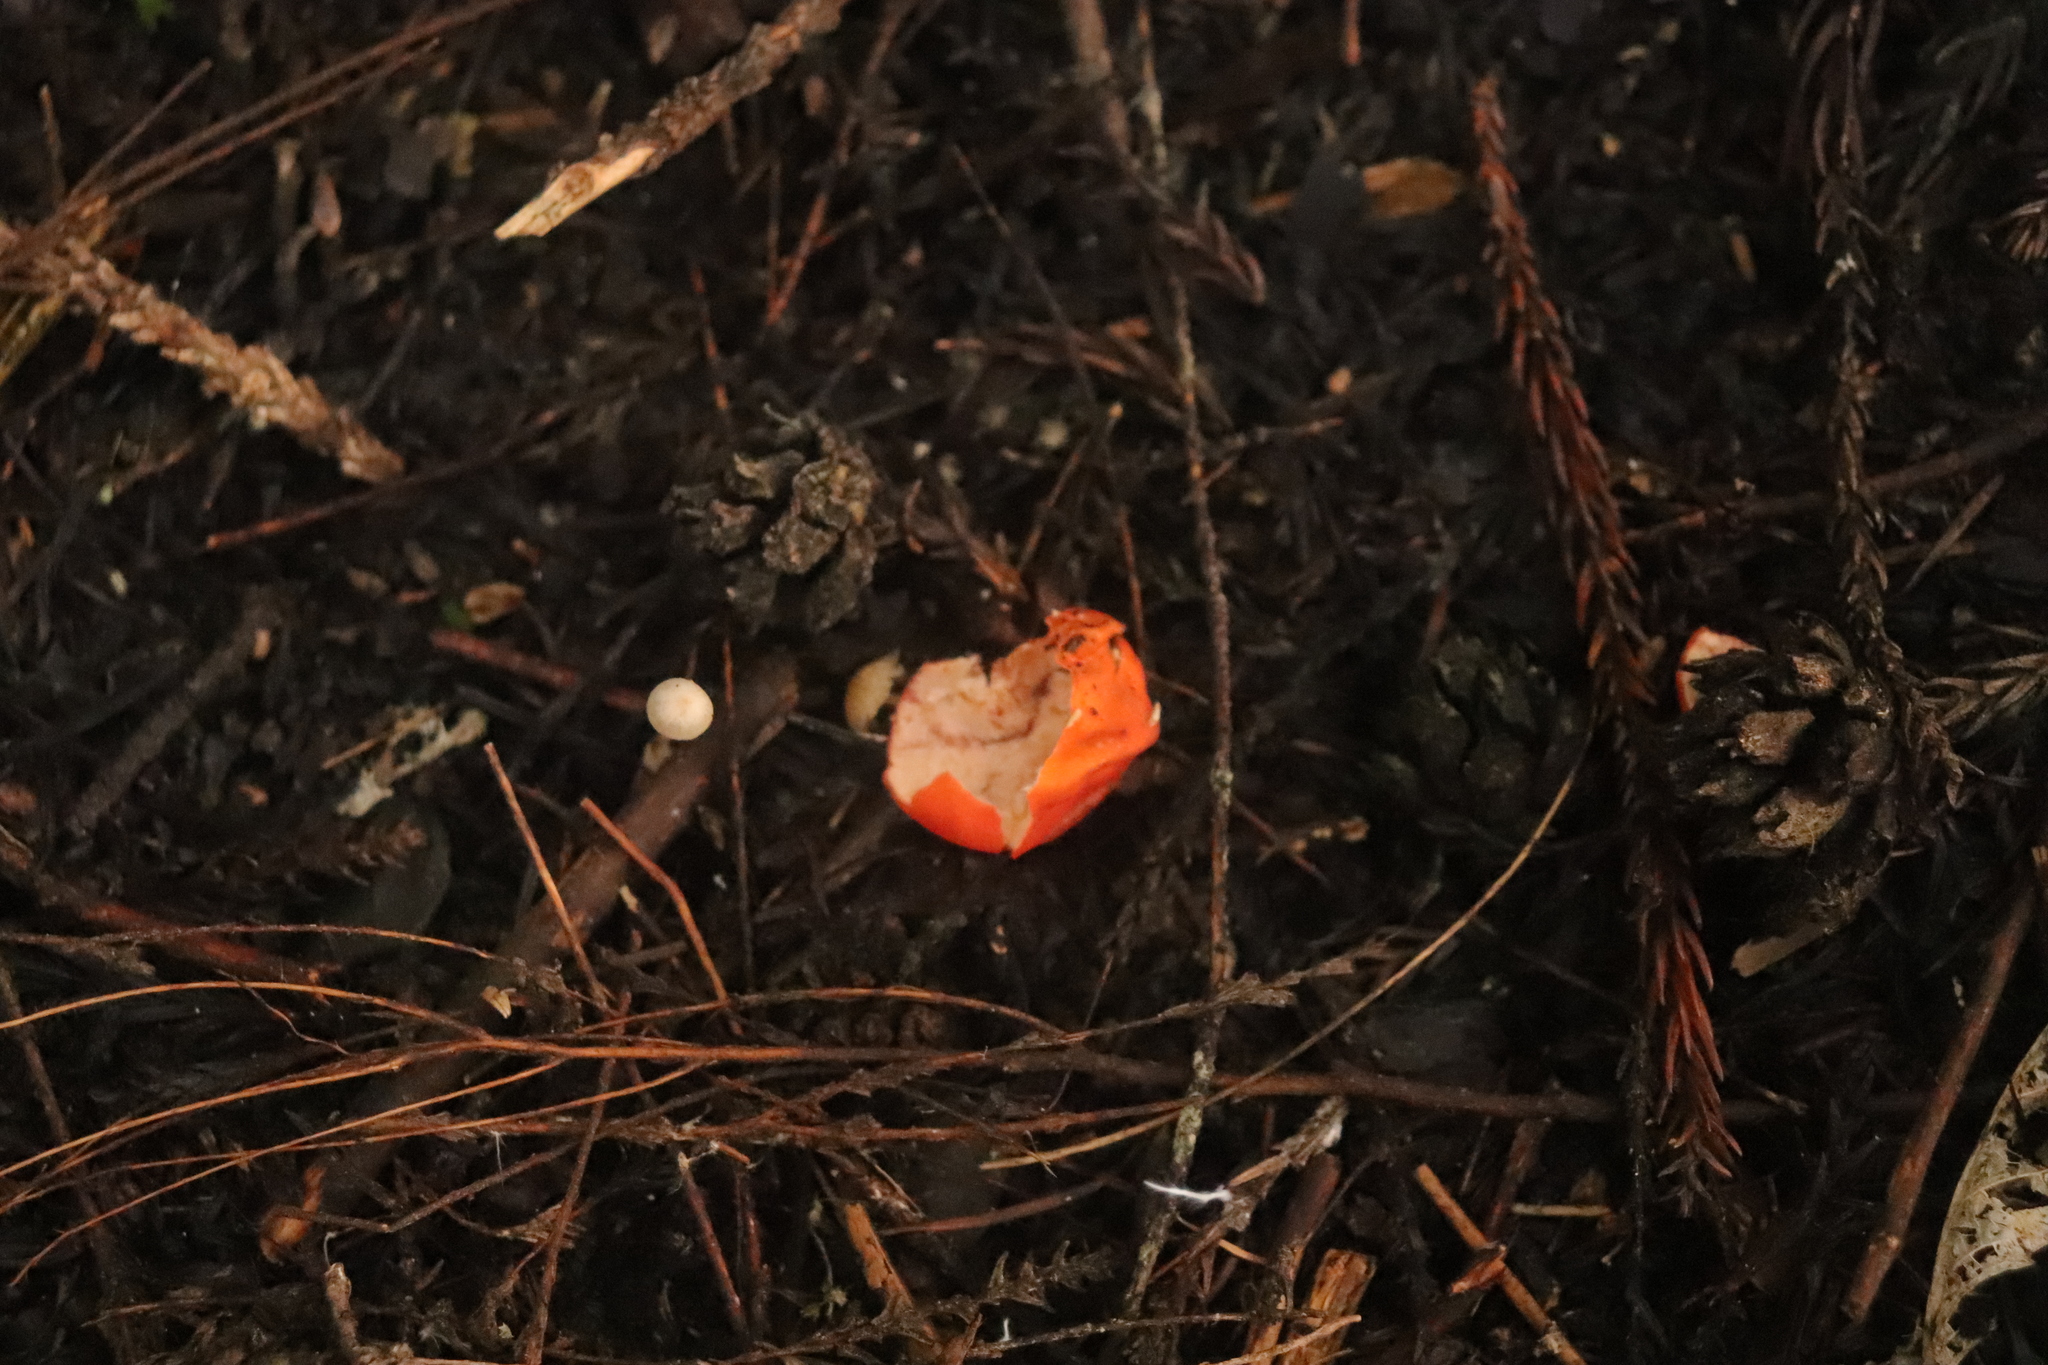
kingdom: Fungi
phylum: Ascomycota
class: Pezizomycetes
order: Pezizales
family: Pyronemataceae
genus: Paurocotylis
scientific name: Paurocotylis pila
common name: Scarlet berry truffle
